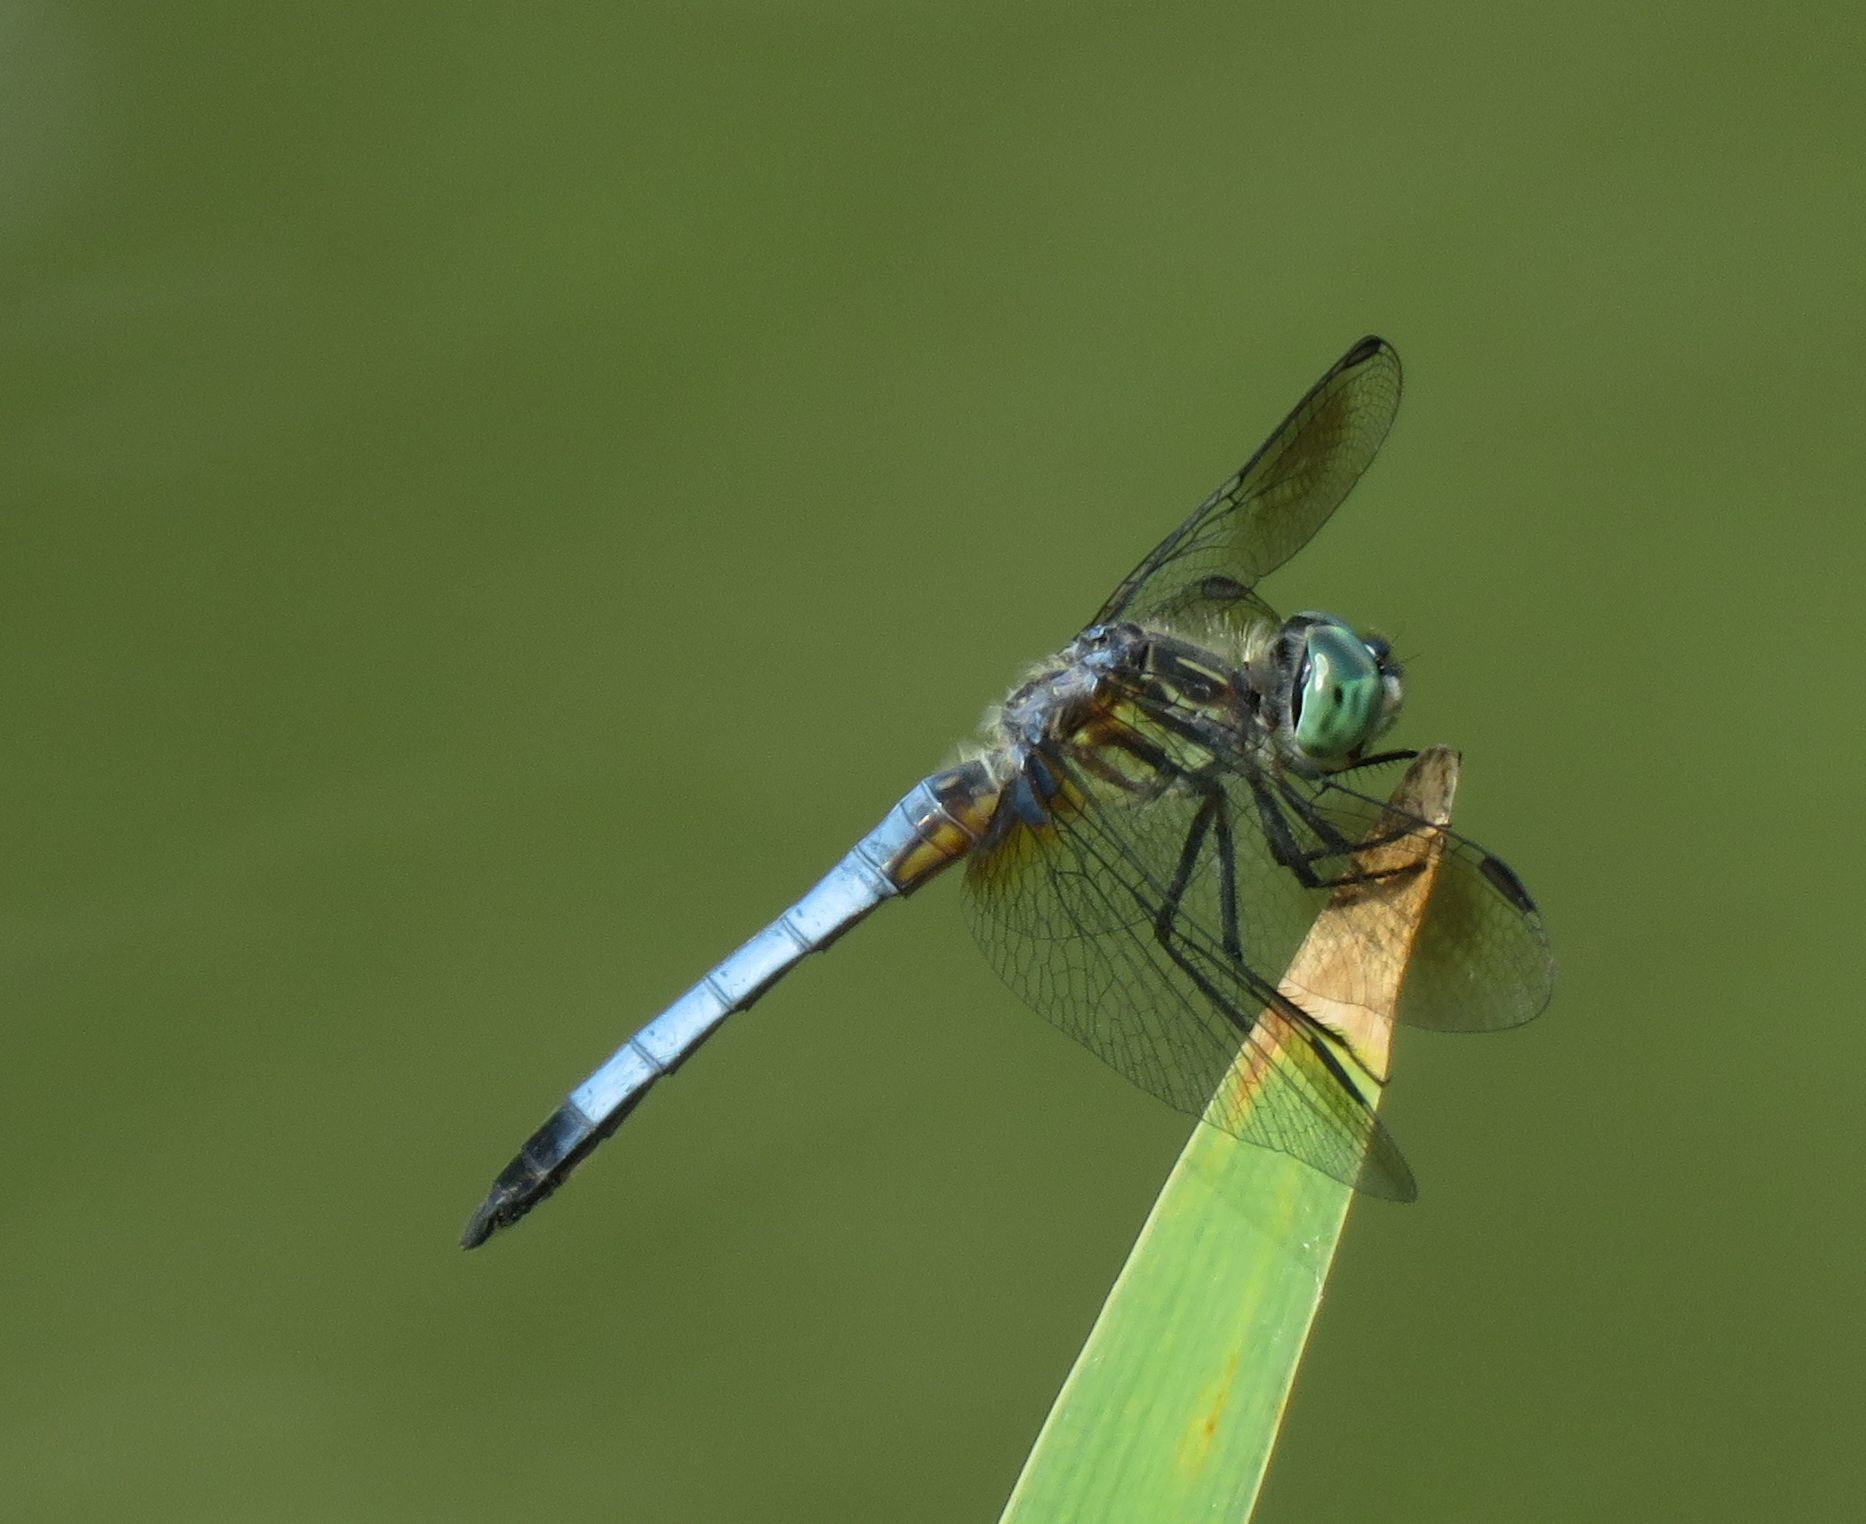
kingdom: Animalia
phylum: Arthropoda
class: Insecta
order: Odonata
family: Libellulidae
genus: Pachydiplax
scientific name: Pachydiplax longipennis
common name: Blue dasher
